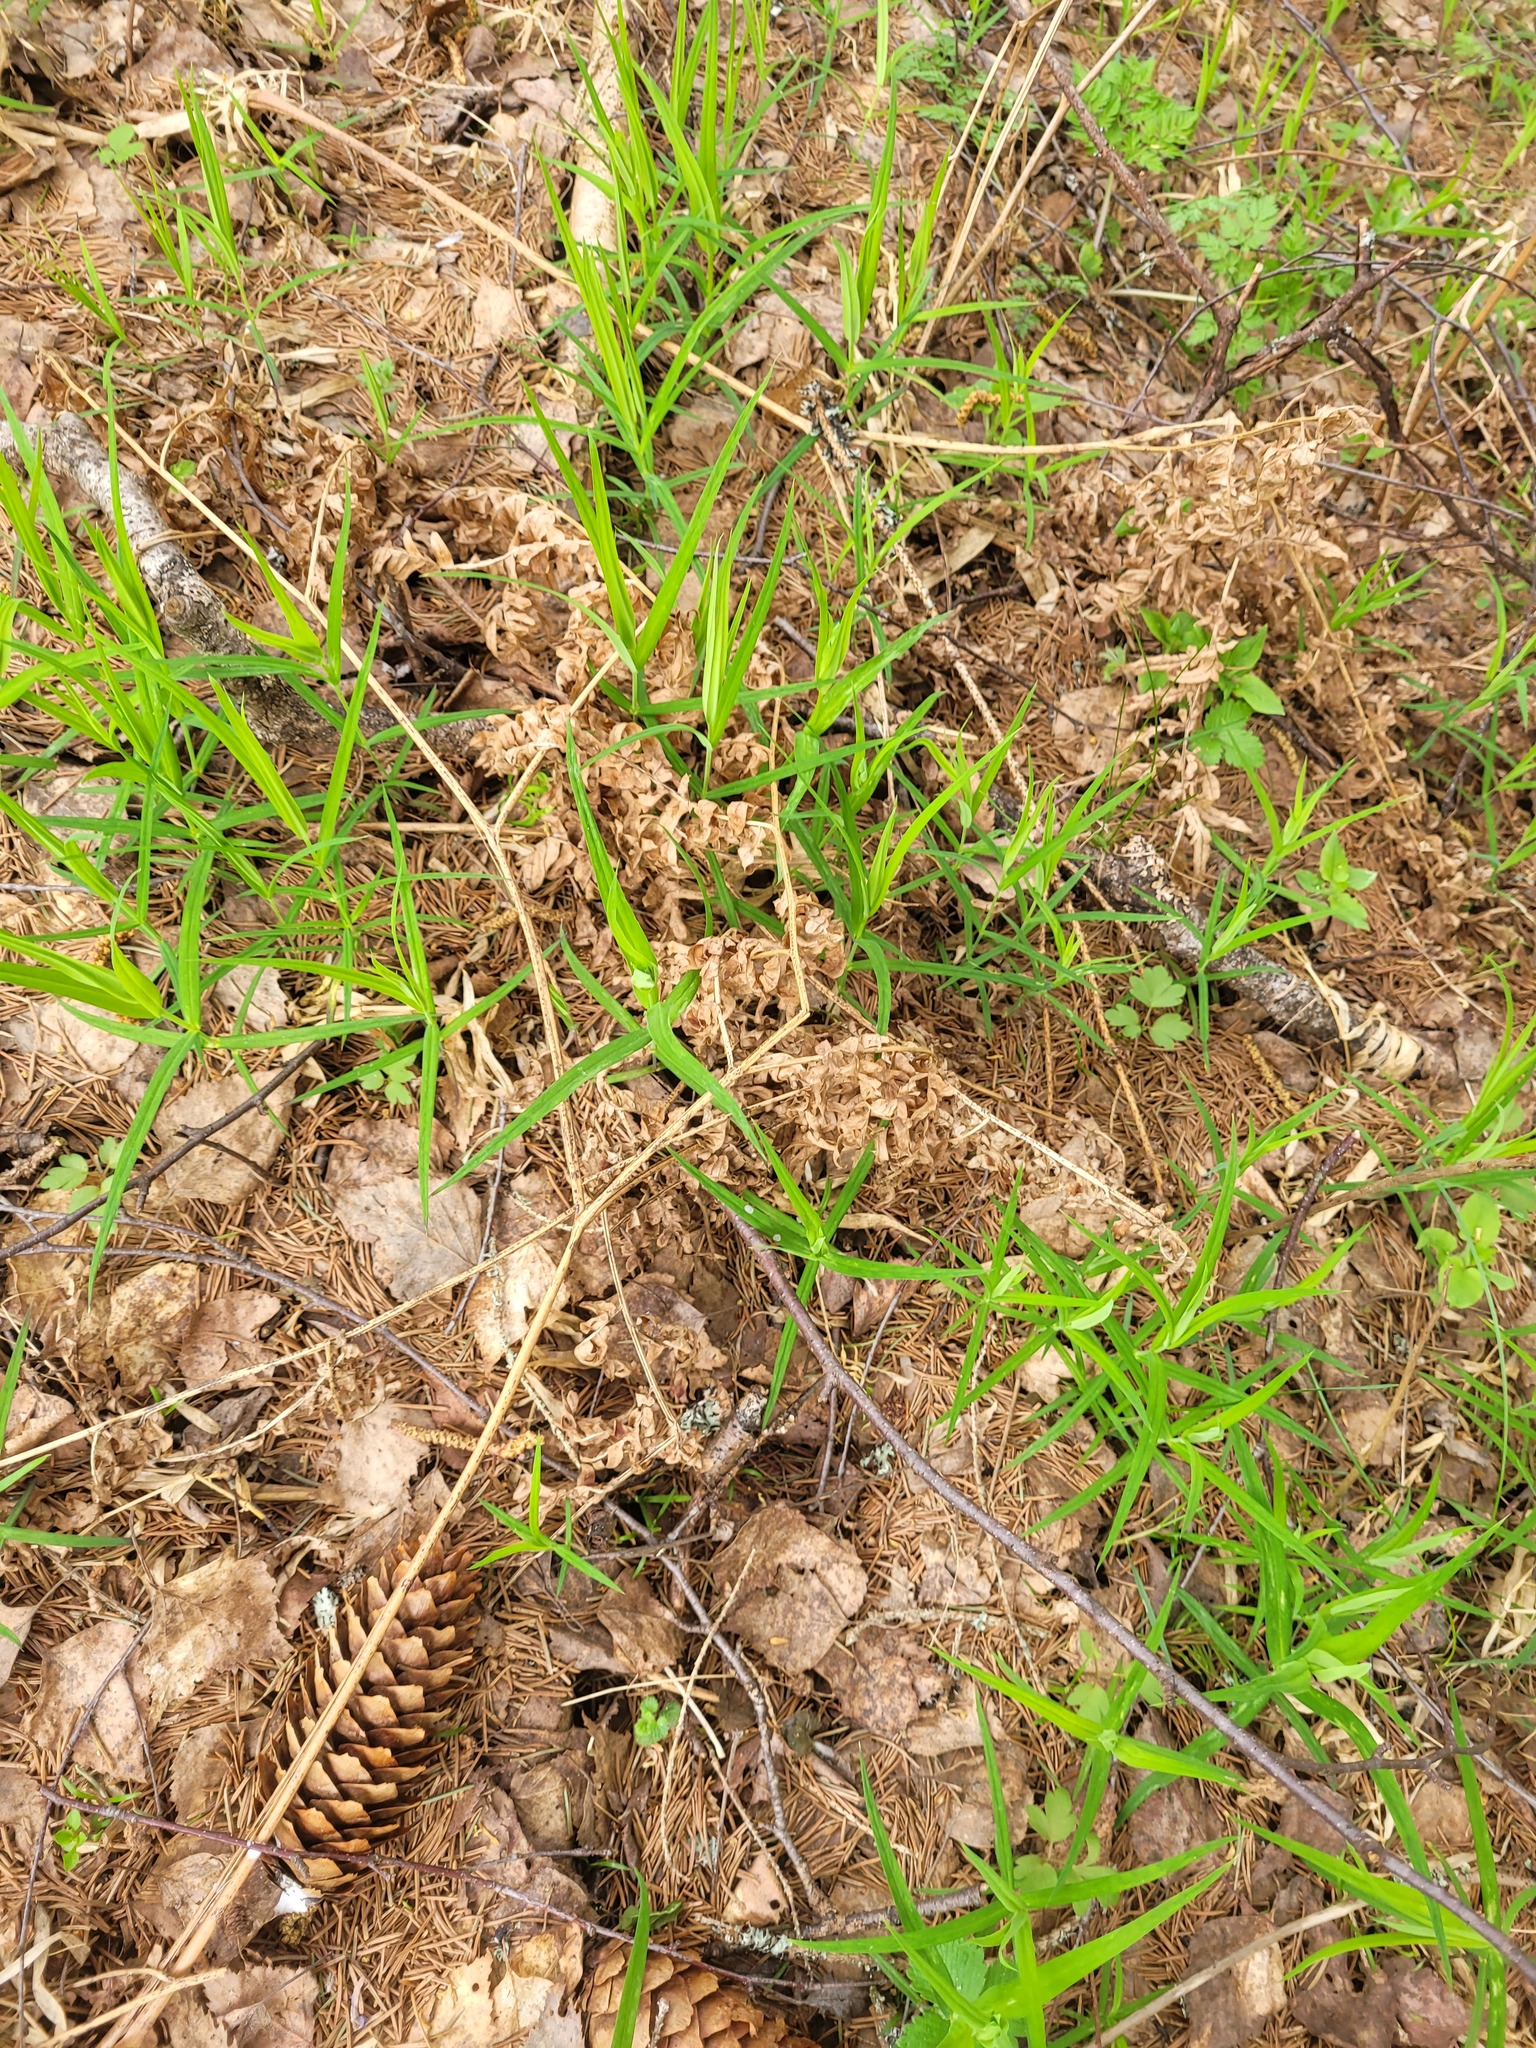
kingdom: Plantae
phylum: Tracheophyta
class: Magnoliopsida
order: Caryophyllales
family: Caryophyllaceae
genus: Rabelera
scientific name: Rabelera holostea
